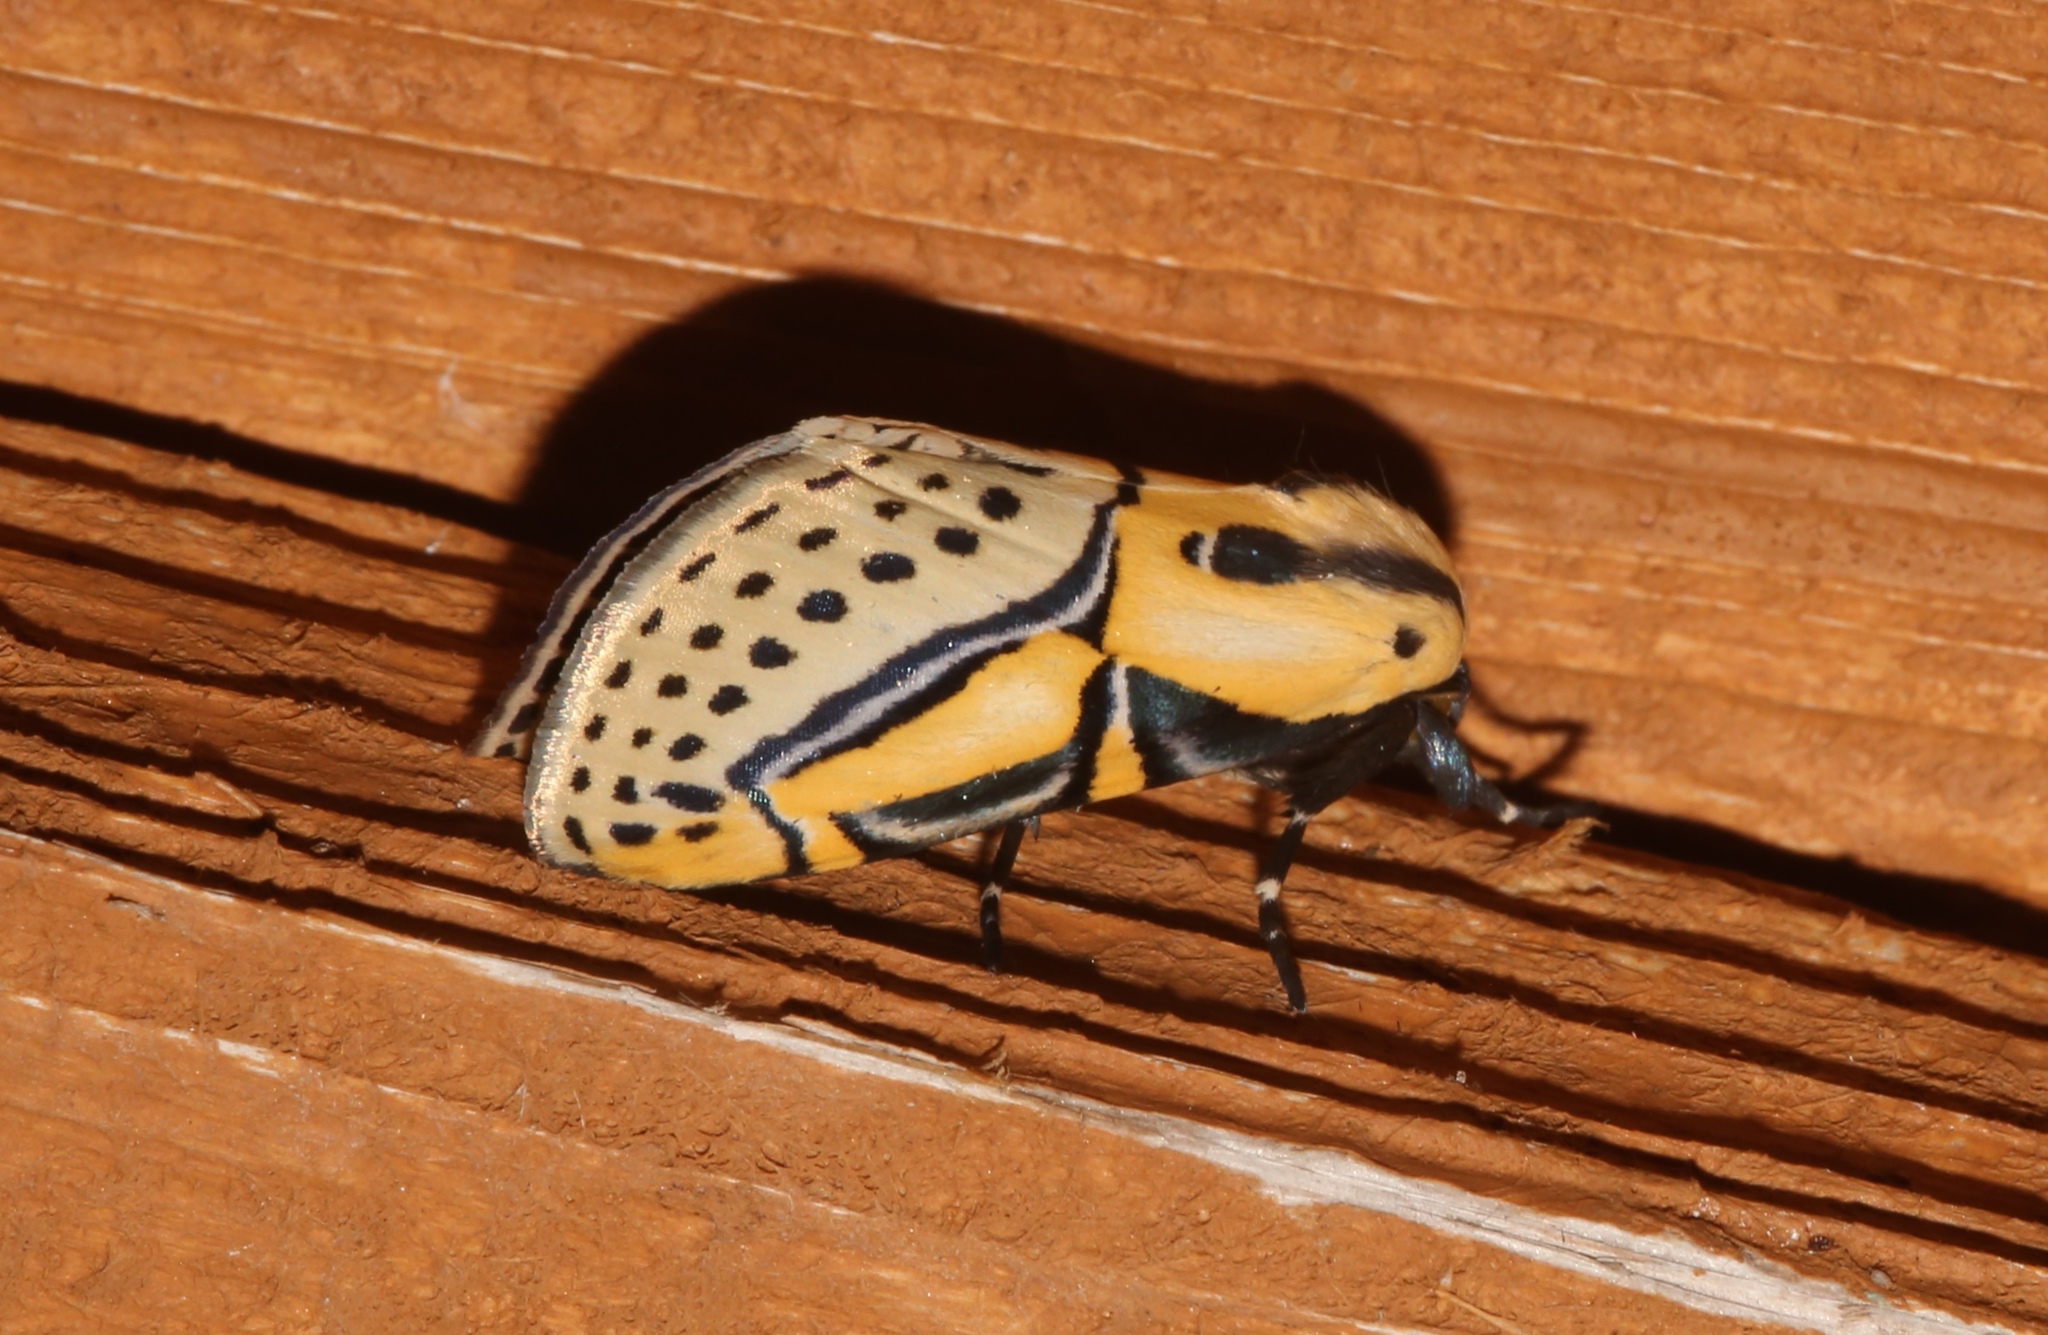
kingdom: Animalia
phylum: Arthropoda
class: Insecta
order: Lepidoptera
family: Erebidae
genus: Diphthera
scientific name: Diphthera festiva
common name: Hieroglyphic moth
